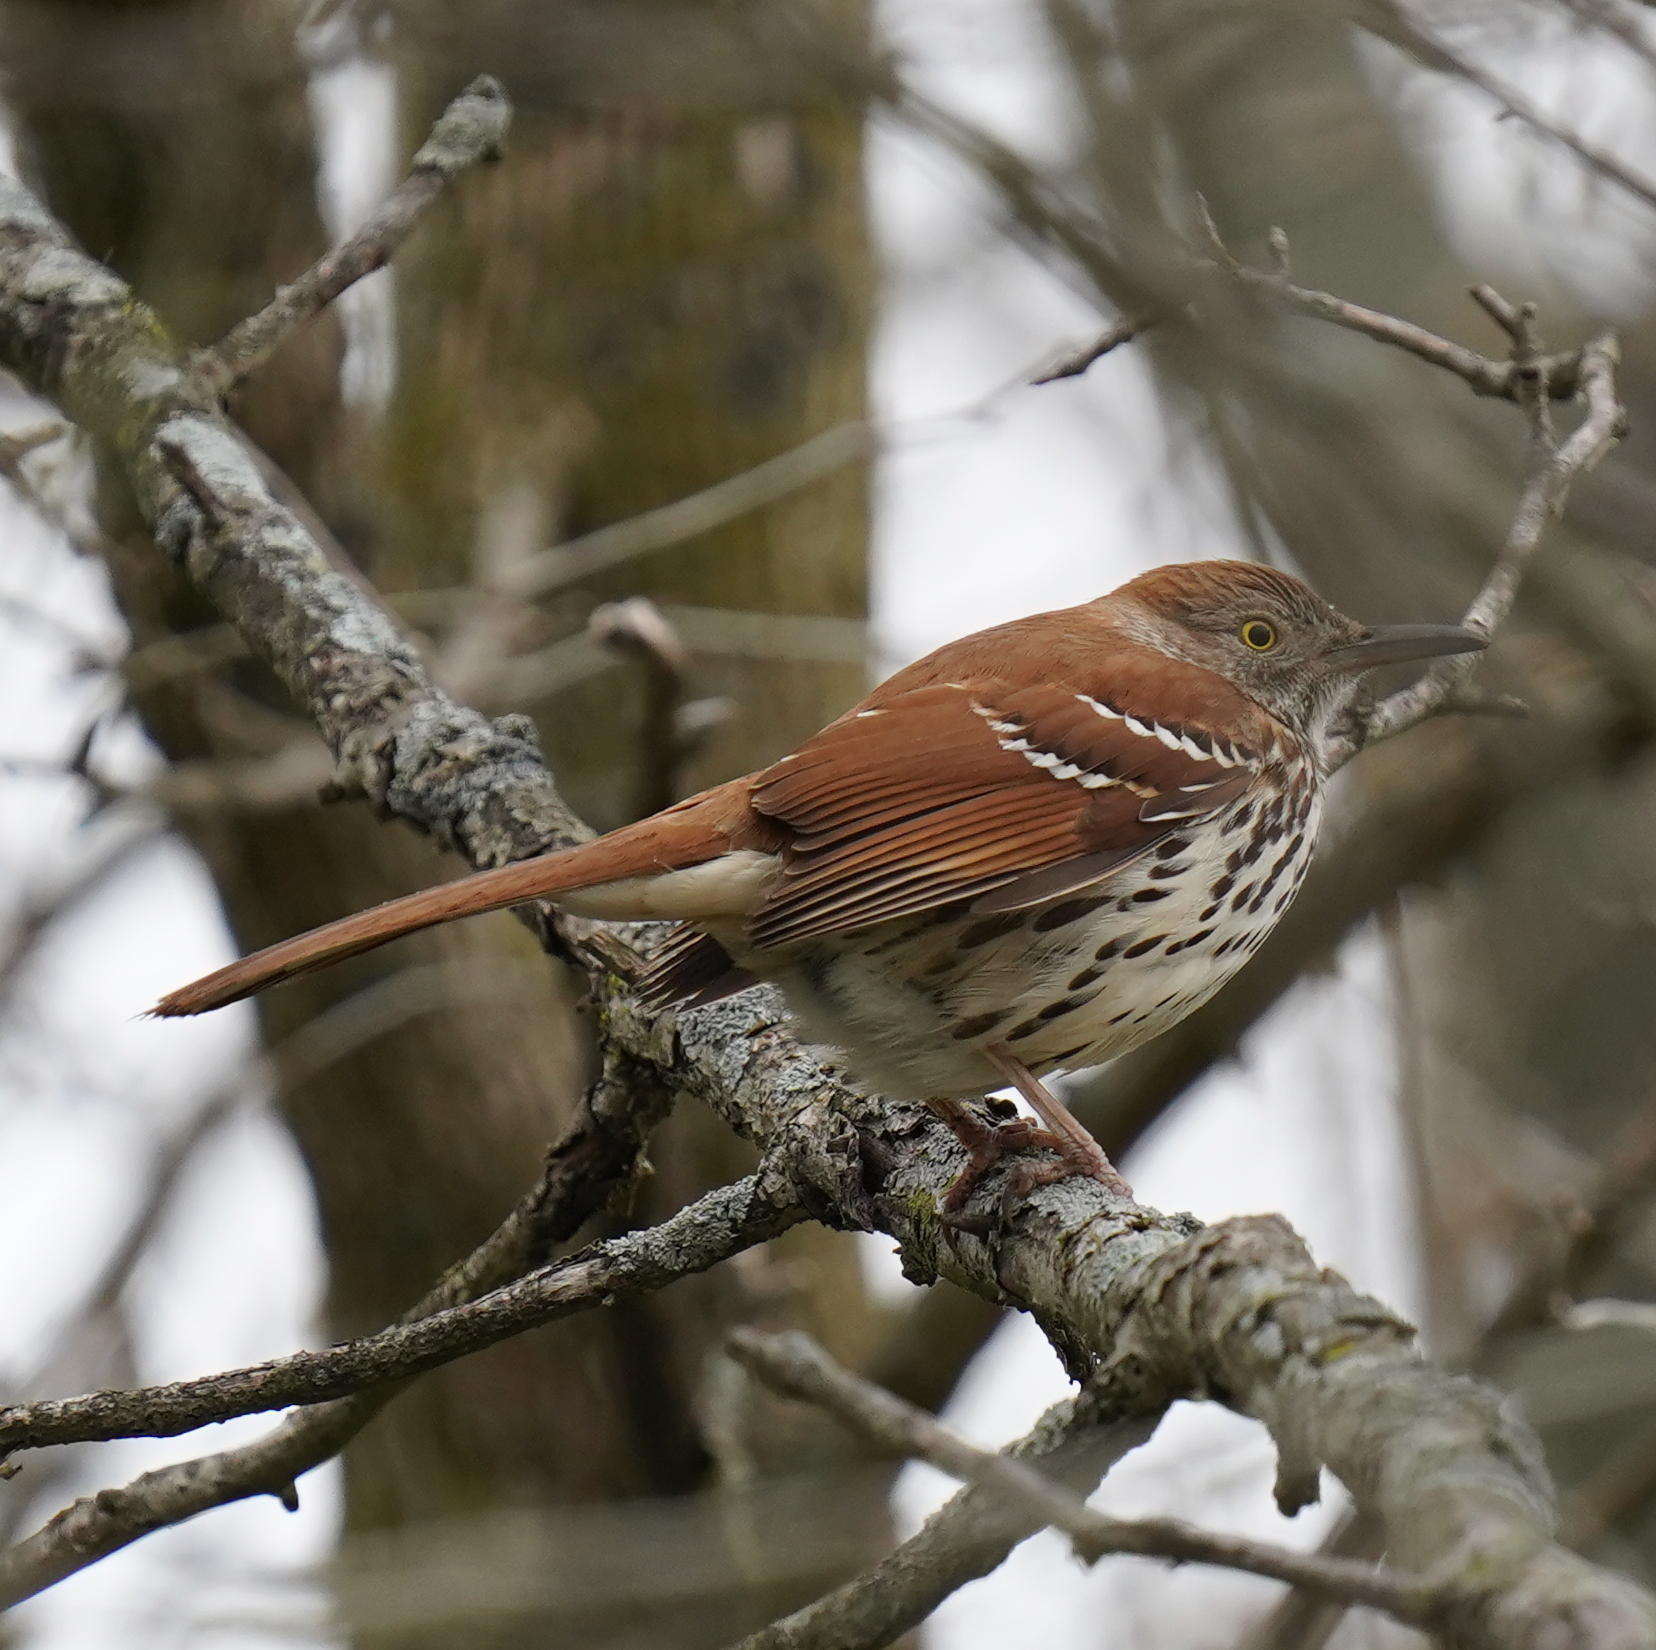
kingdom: Animalia
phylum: Chordata
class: Aves
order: Passeriformes
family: Mimidae
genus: Toxostoma
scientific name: Toxostoma rufum
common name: Brown thrasher
